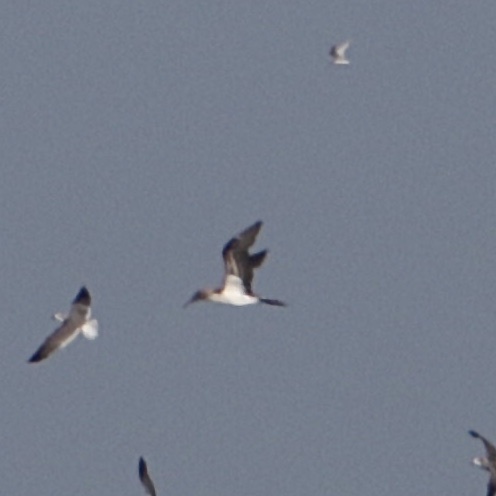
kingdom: Animalia
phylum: Chordata
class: Aves
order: Suliformes
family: Sulidae
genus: Sula
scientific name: Sula nebouxii
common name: Blue-footed booby
